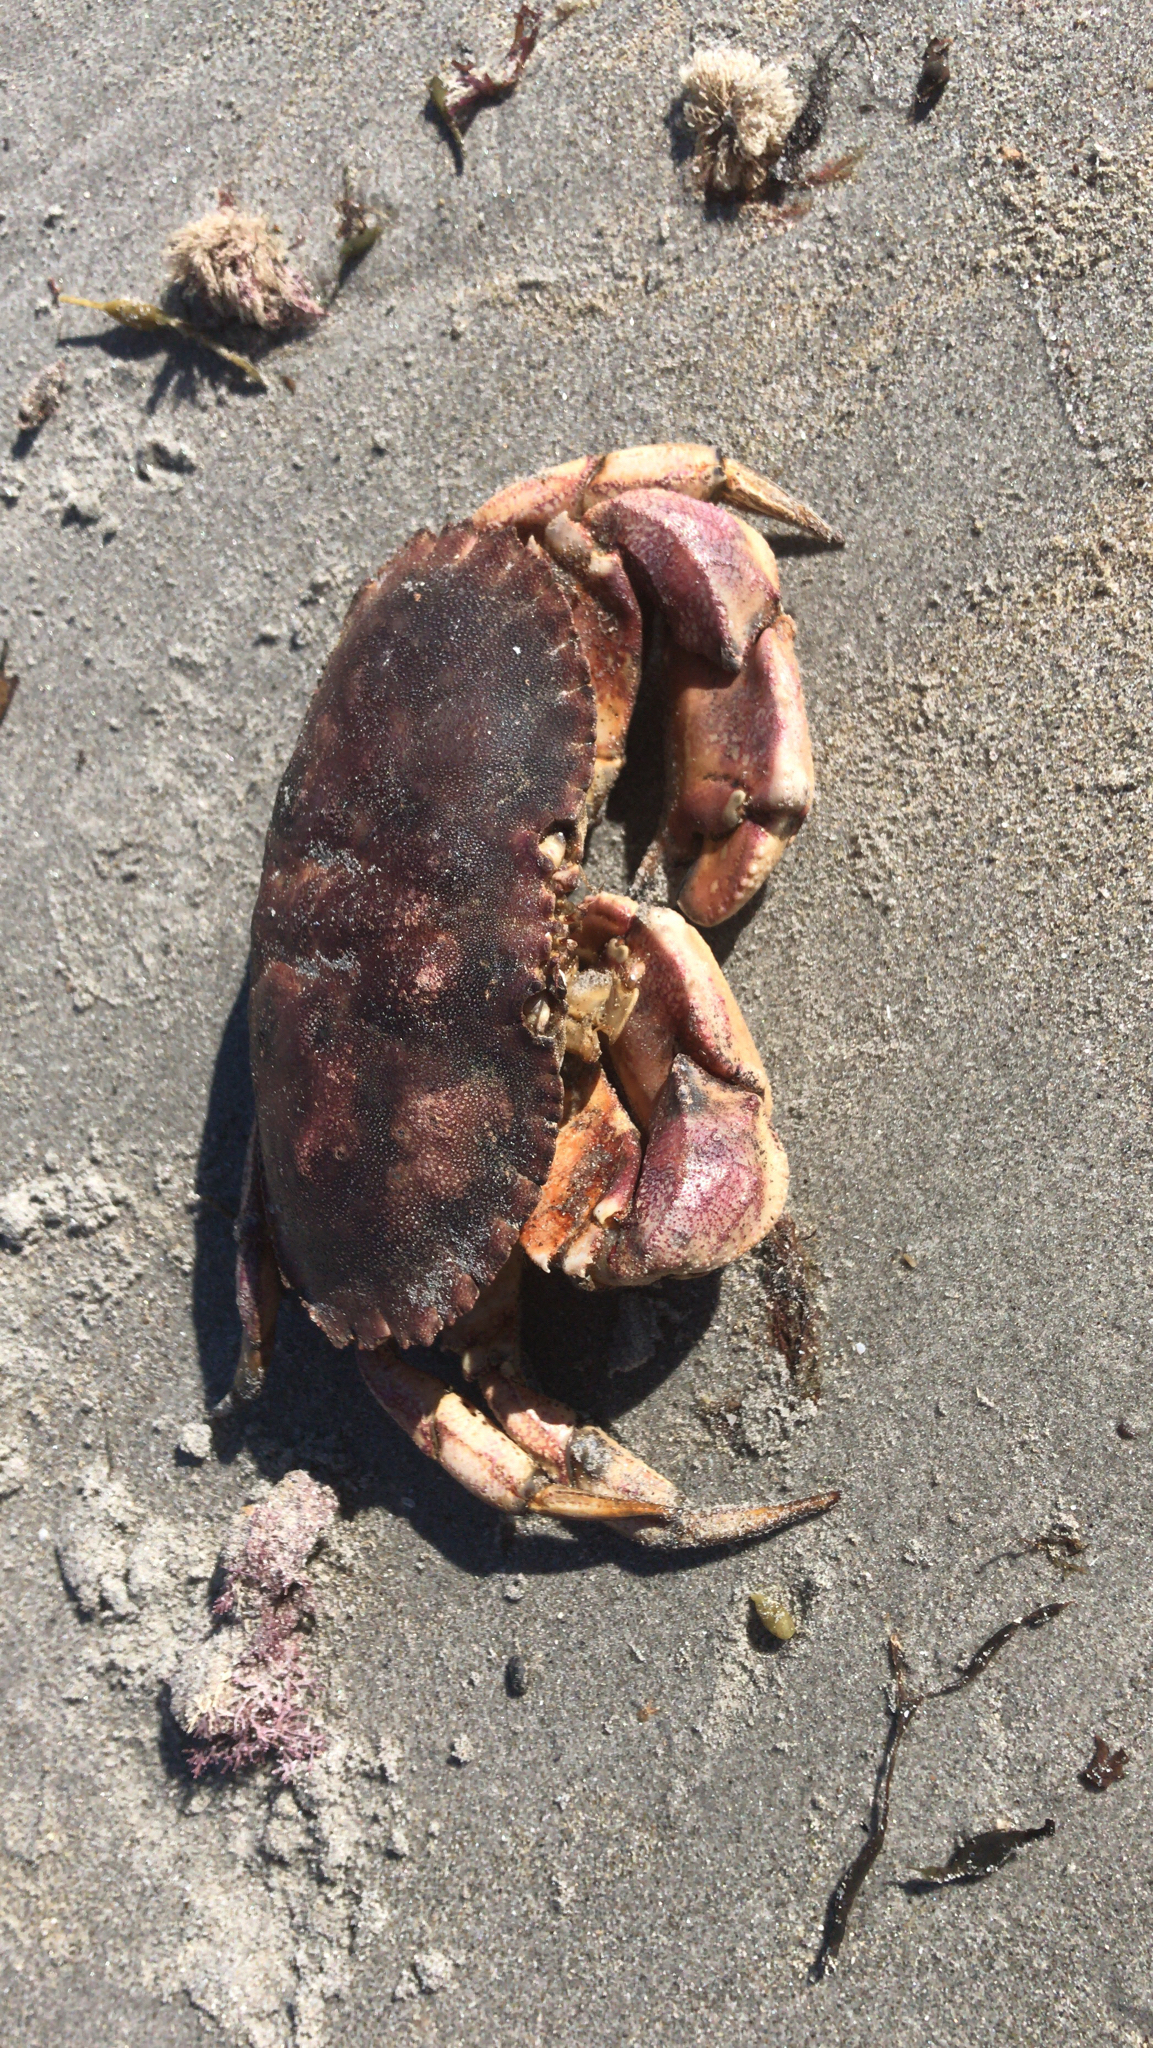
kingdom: Animalia
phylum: Arthropoda
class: Malacostraca
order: Decapoda
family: Cancridae
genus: Cancer
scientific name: Cancer borealis
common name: Jonah crab
